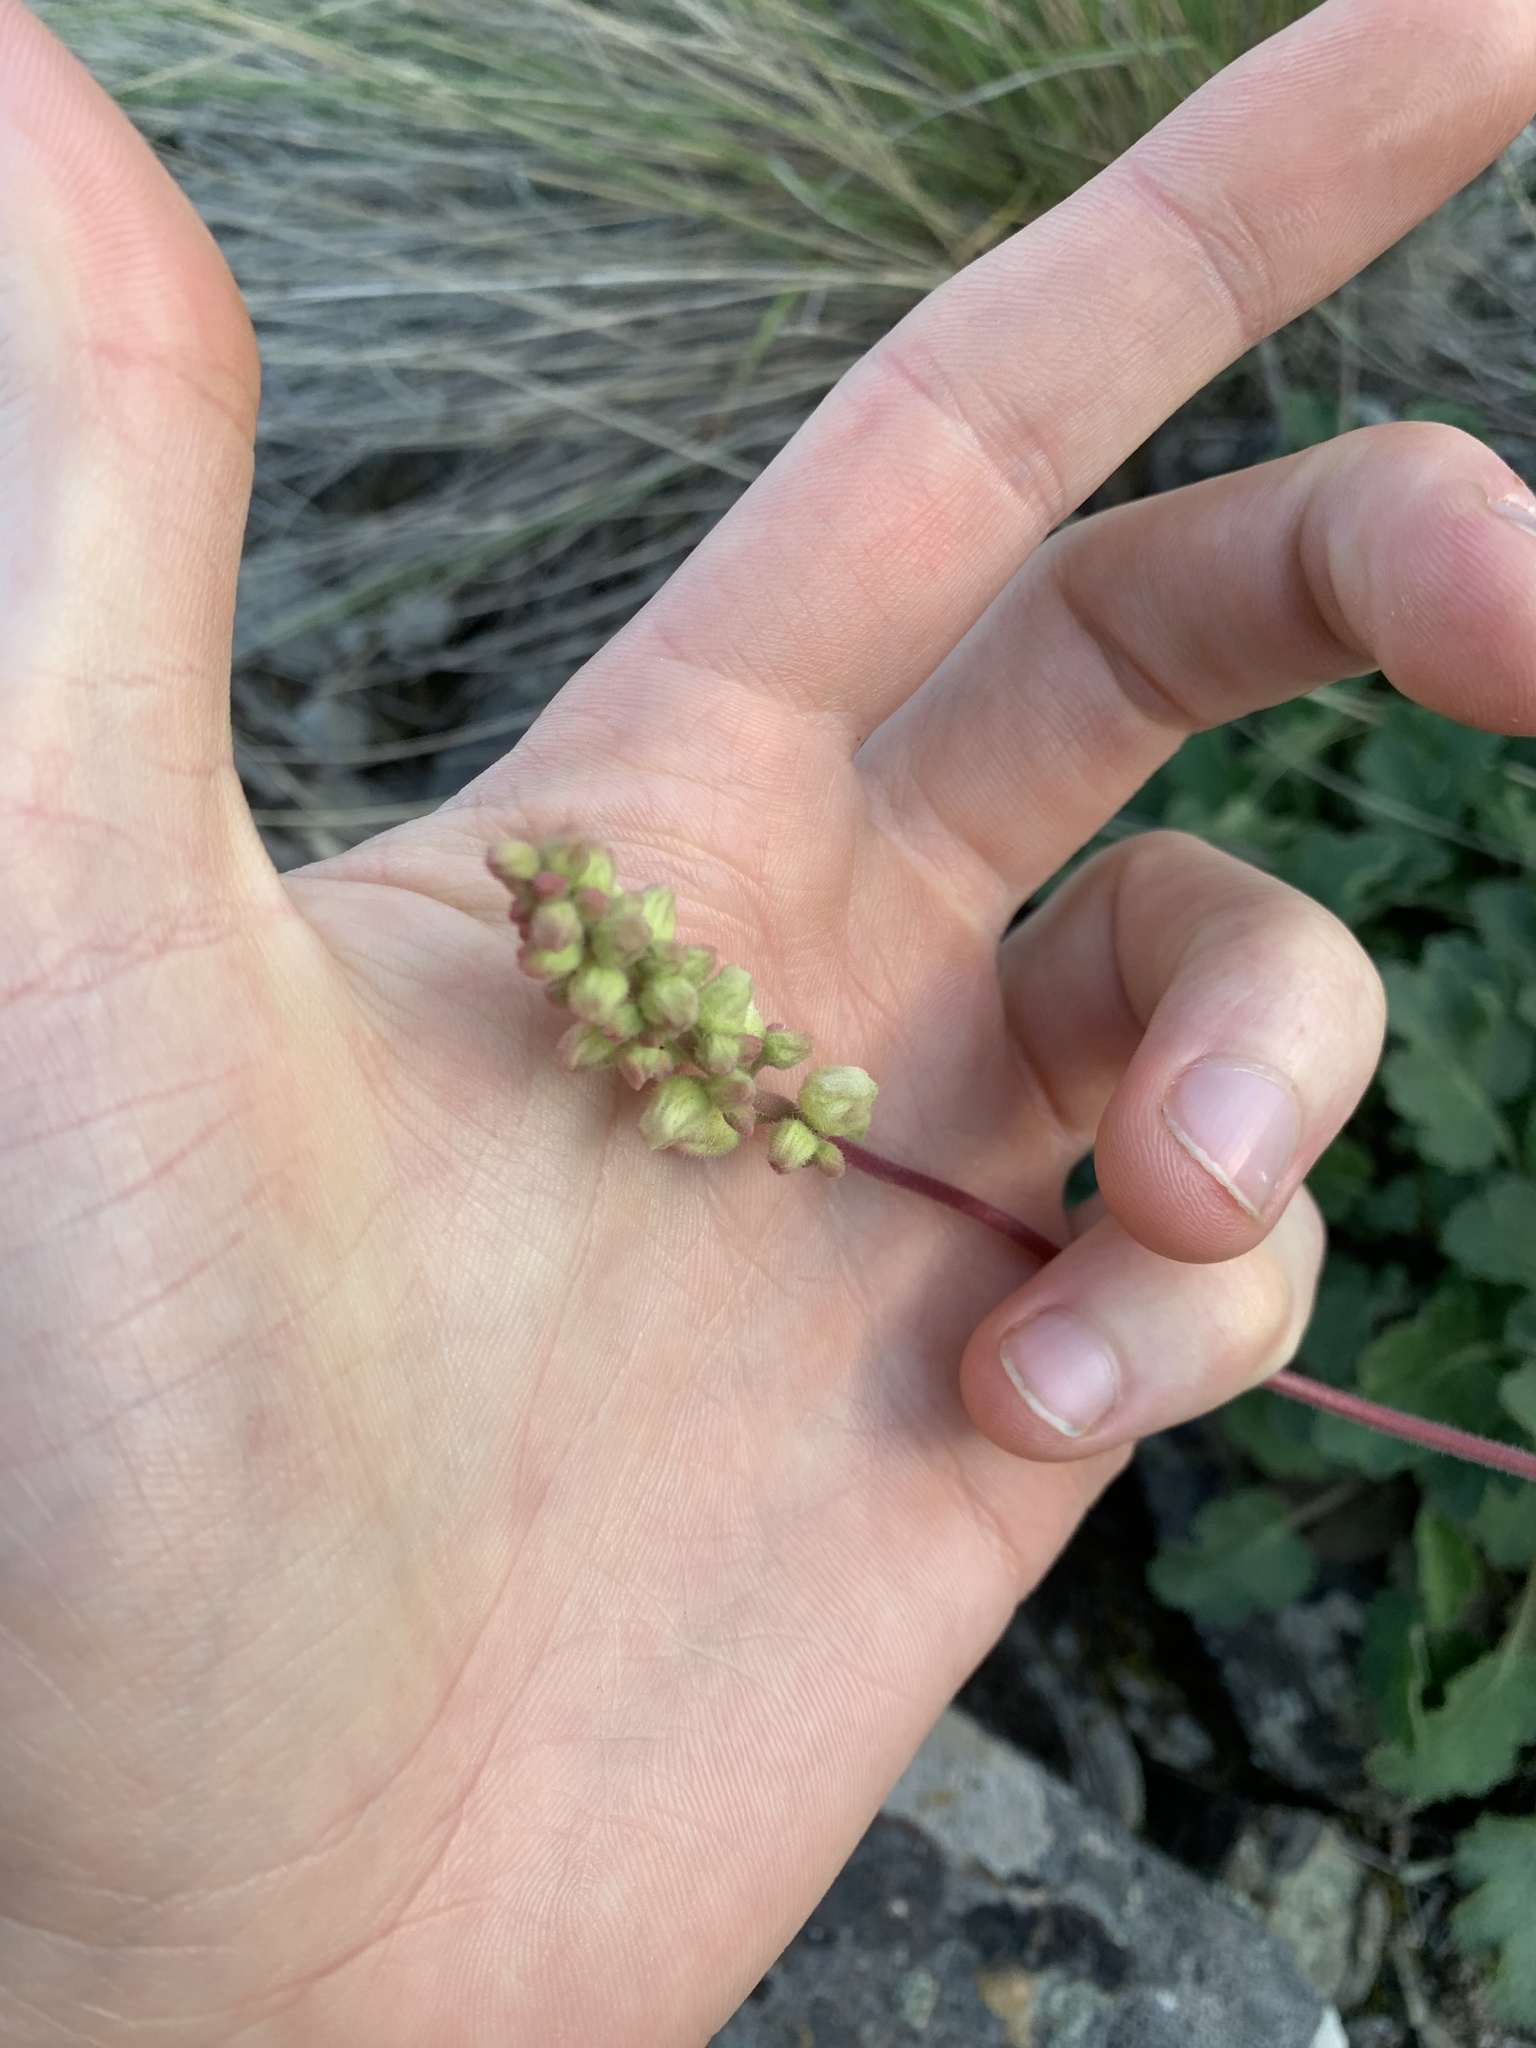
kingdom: Plantae
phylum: Tracheophyta
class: Magnoliopsida
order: Saxifragales
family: Saxifragaceae
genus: Heuchera
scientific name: Heuchera cylindrica
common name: Mat alumroot
